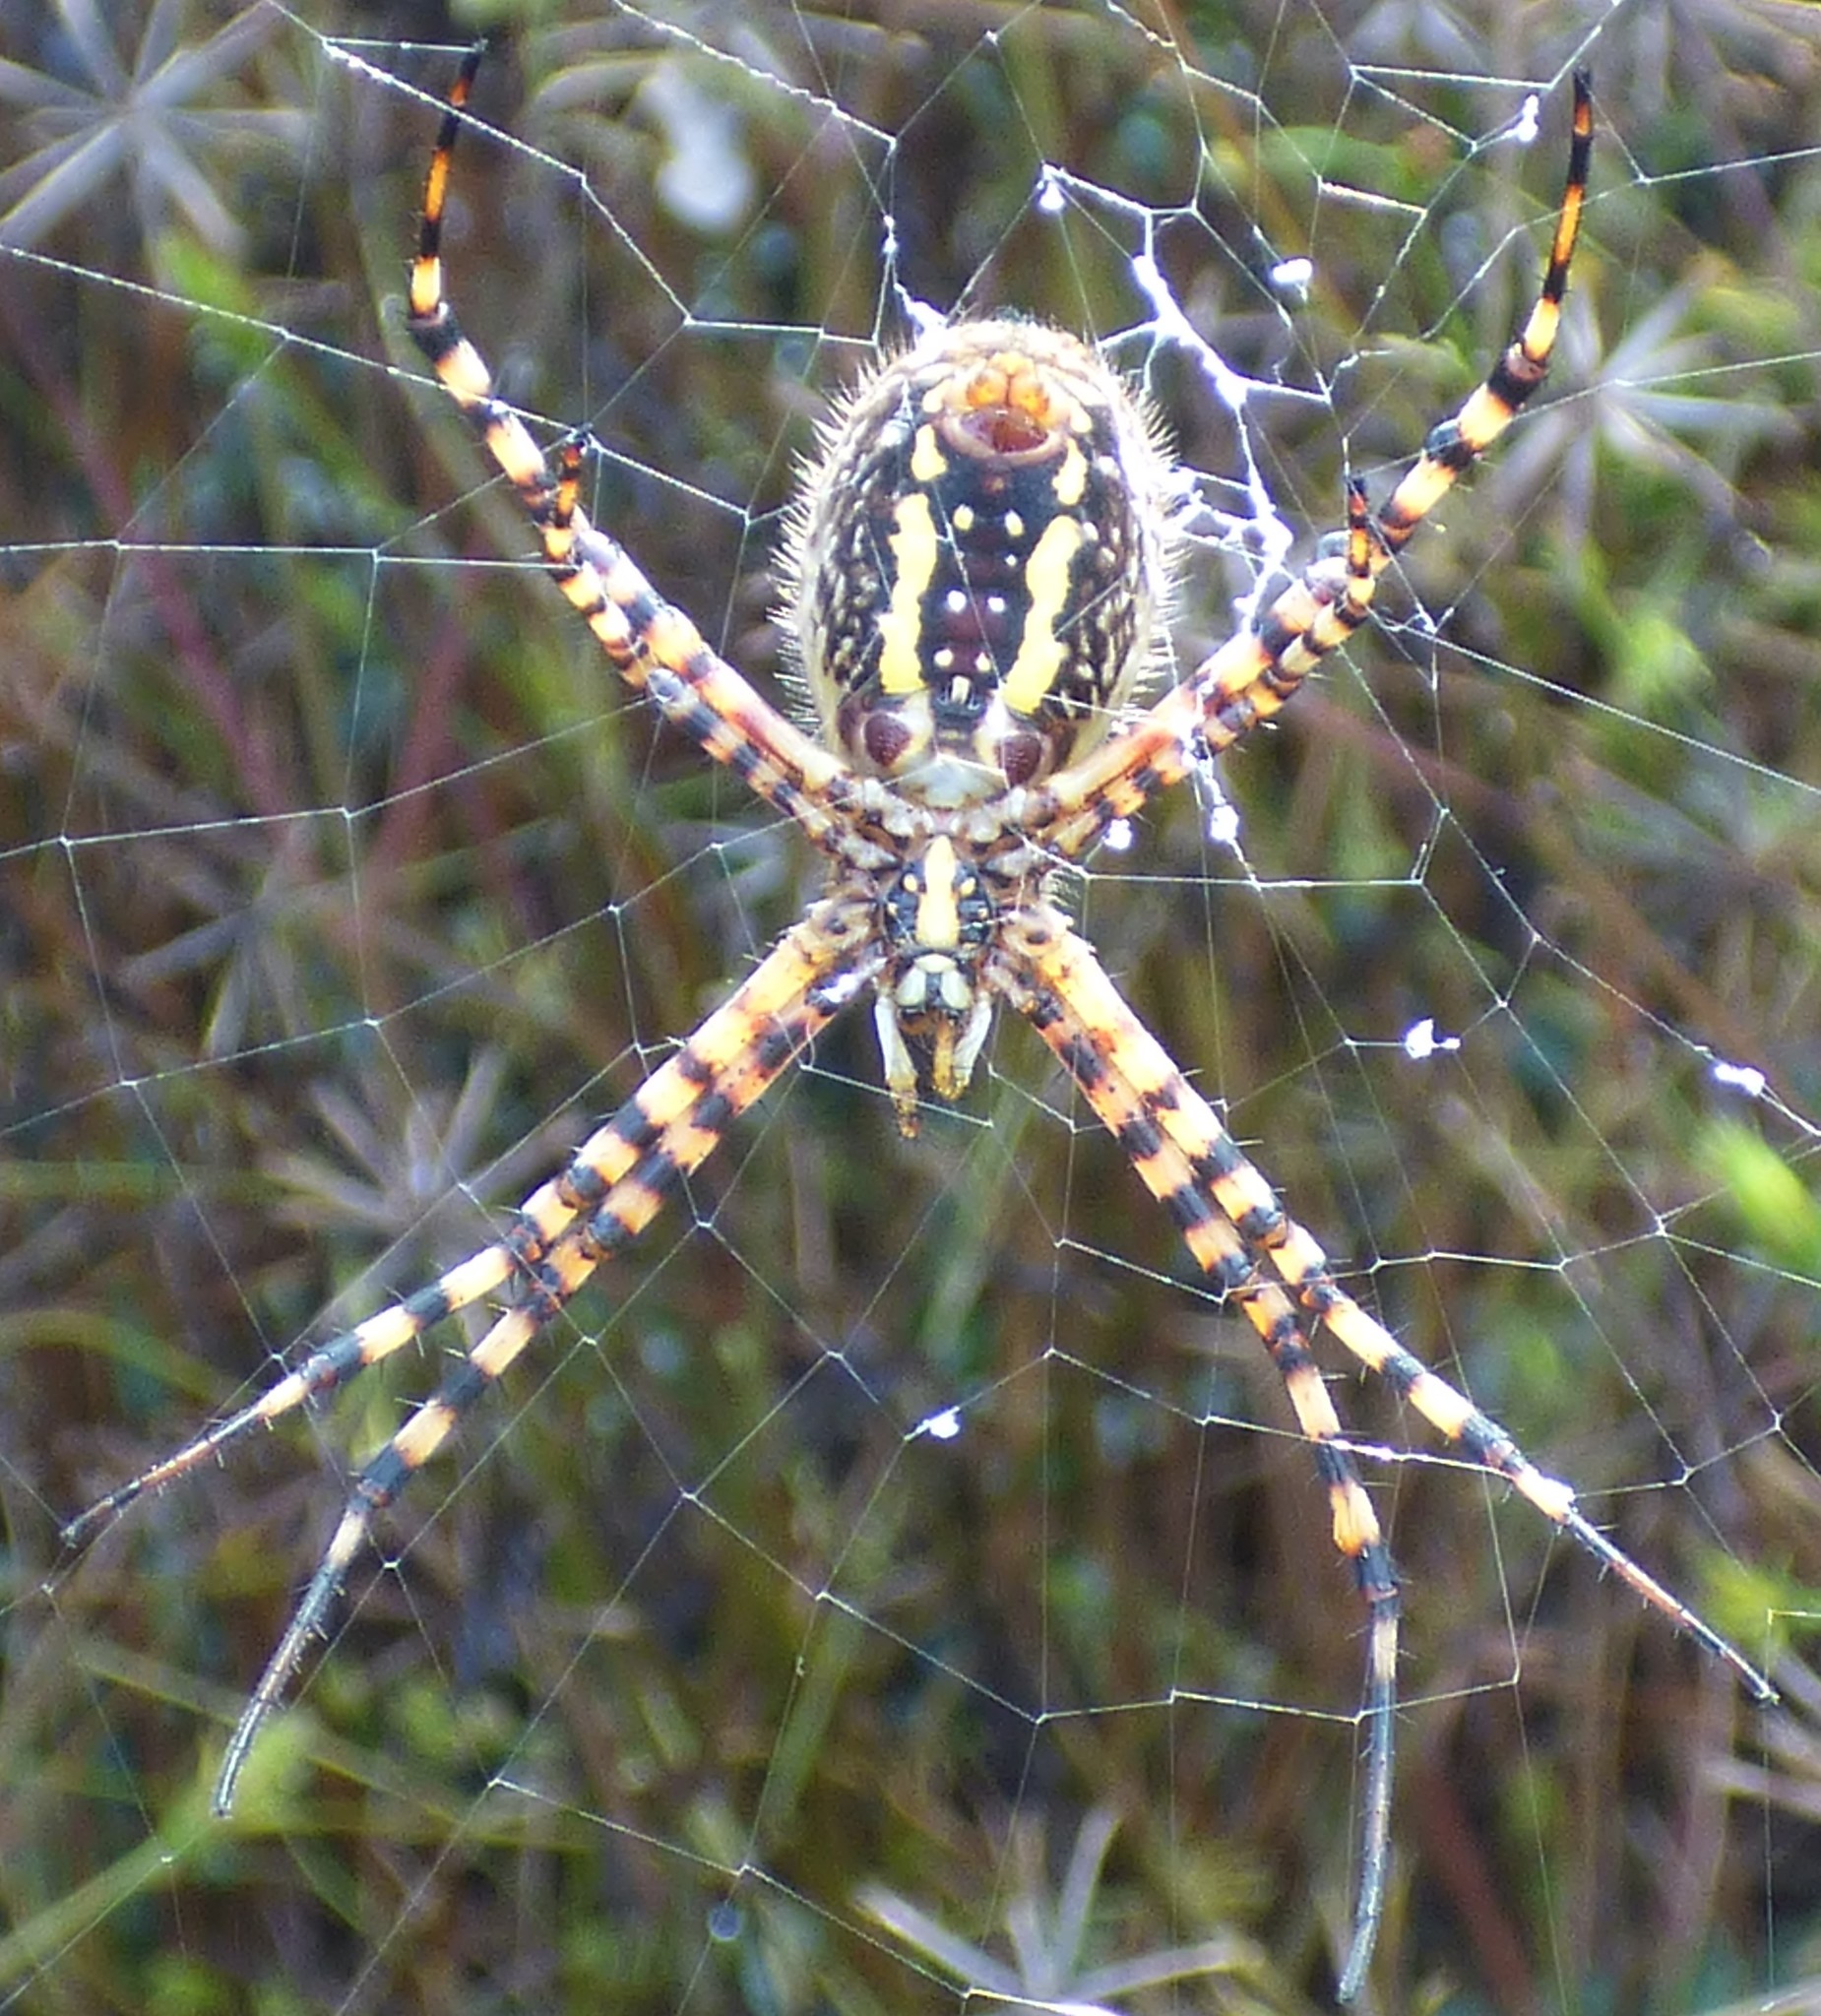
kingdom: Animalia
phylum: Arthropoda
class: Arachnida
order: Araneae
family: Araneidae
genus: Argiope
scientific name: Argiope trifasciata
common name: Banded garden spider
